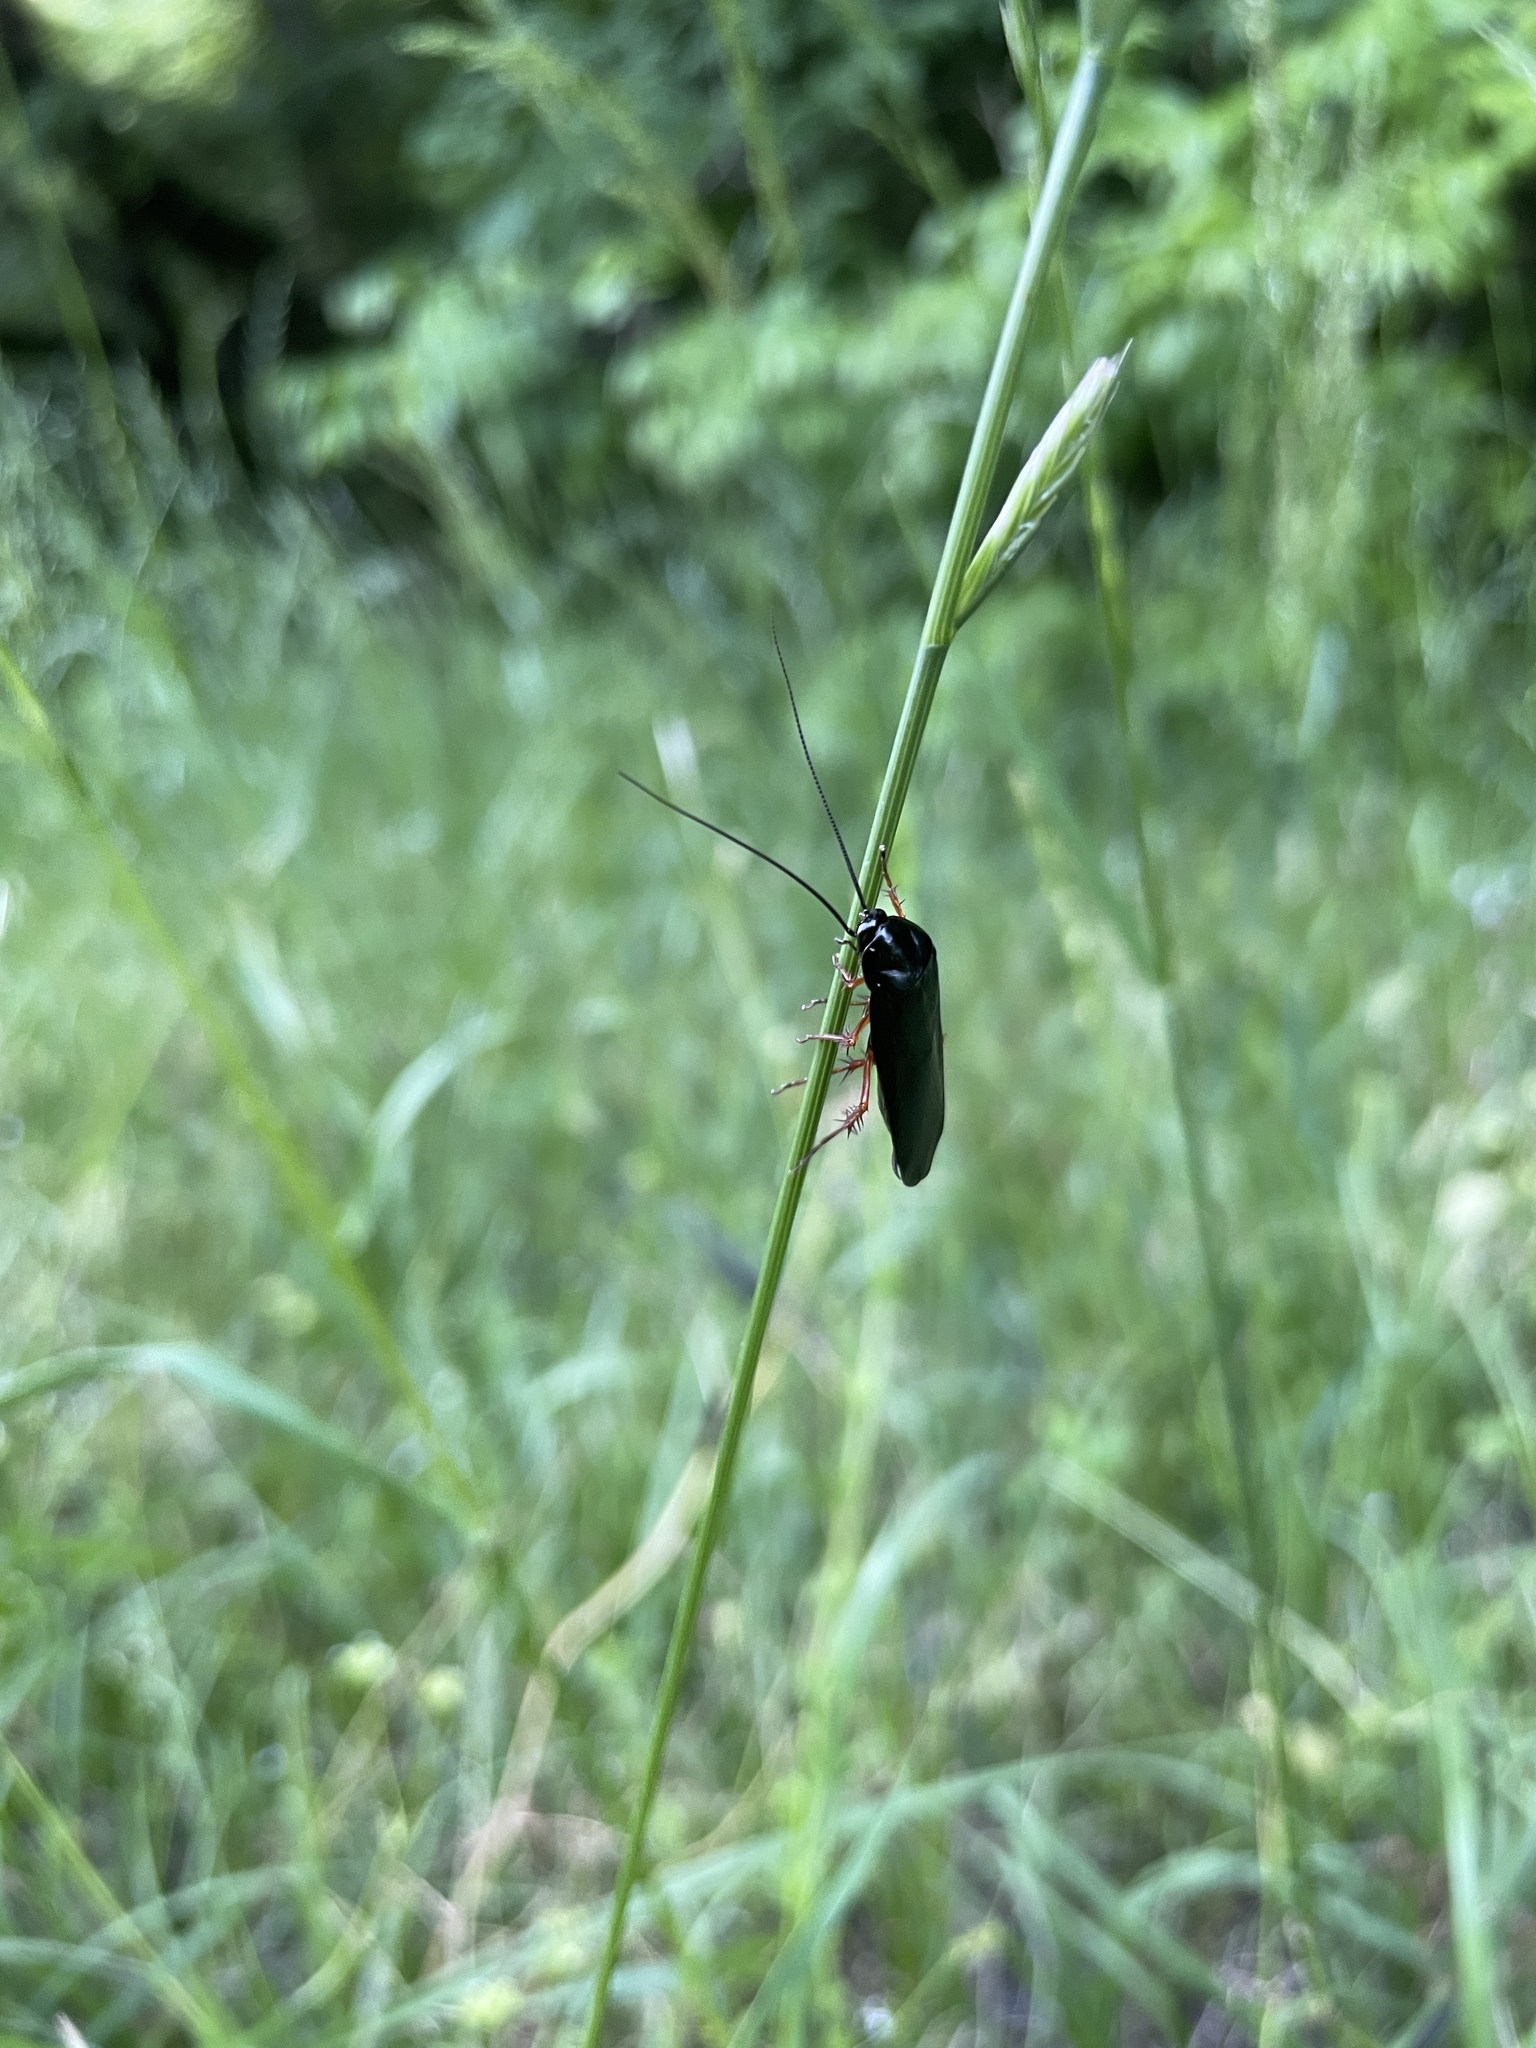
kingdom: Animalia
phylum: Arthropoda
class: Insecta
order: Blattodea
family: Ectobiidae
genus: Ischnoptera
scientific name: Ischnoptera deropeltiformis
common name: Dark wood cockroach
